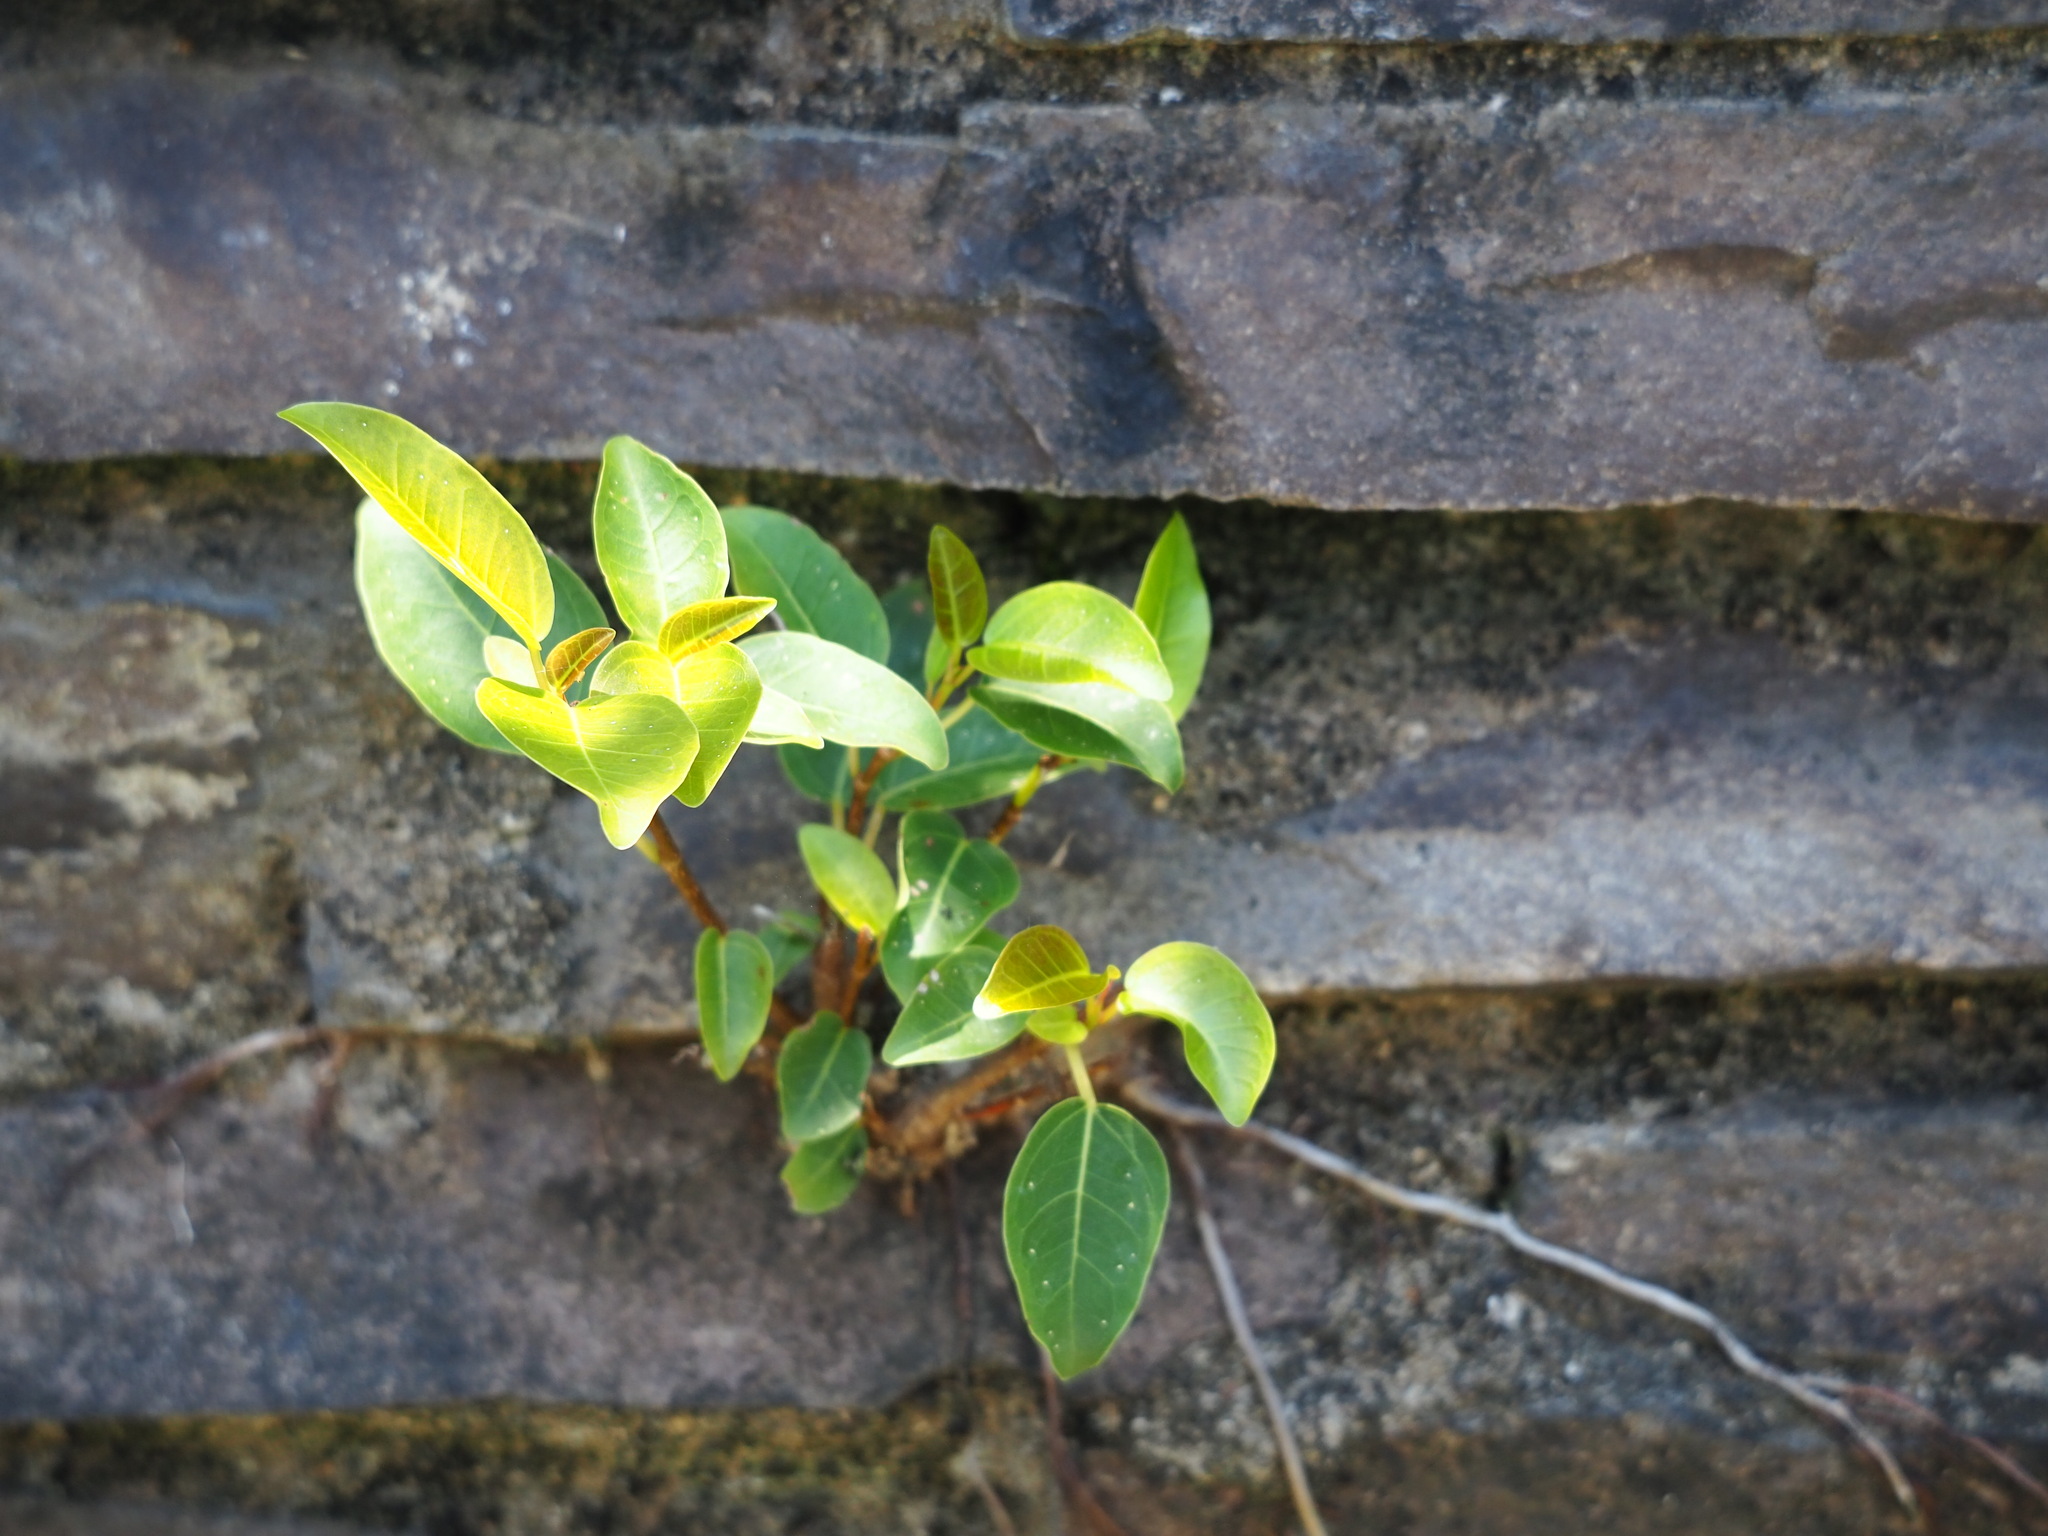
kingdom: Plantae
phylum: Tracheophyta
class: Magnoliopsida
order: Rosales
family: Moraceae
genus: Ficus
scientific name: Ficus subpisocarpa
